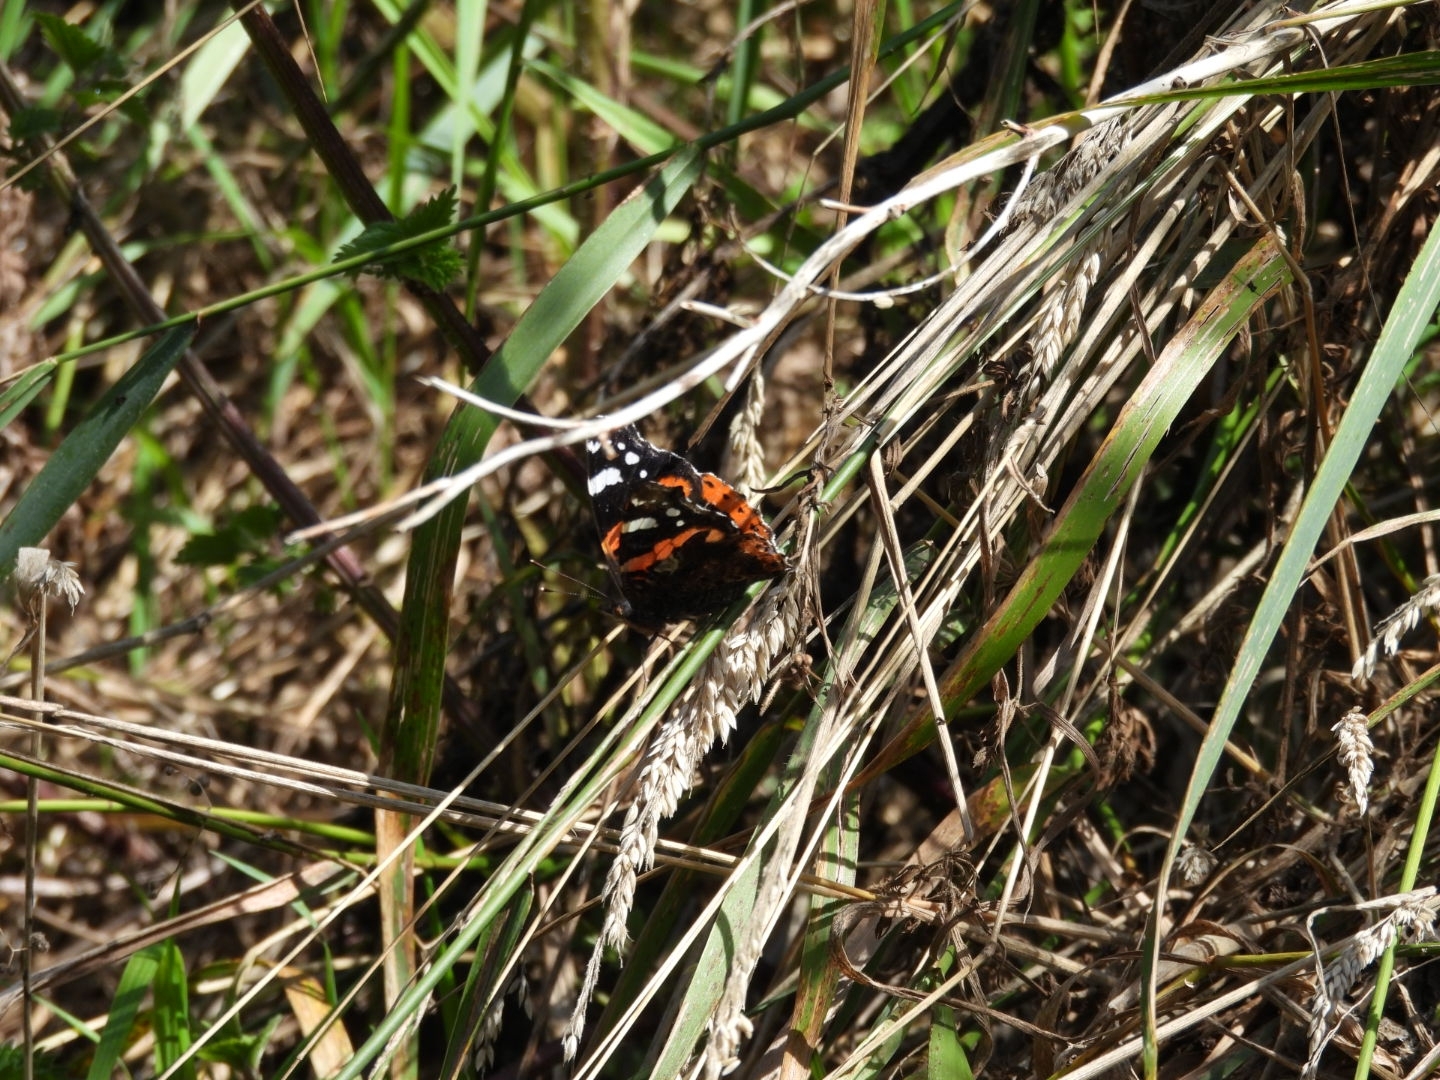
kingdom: Animalia
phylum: Arthropoda
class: Insecta
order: Lepidoptera
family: Nymphalidae
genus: Vanessa
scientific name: Vanessa atalanta
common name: Red admiral
